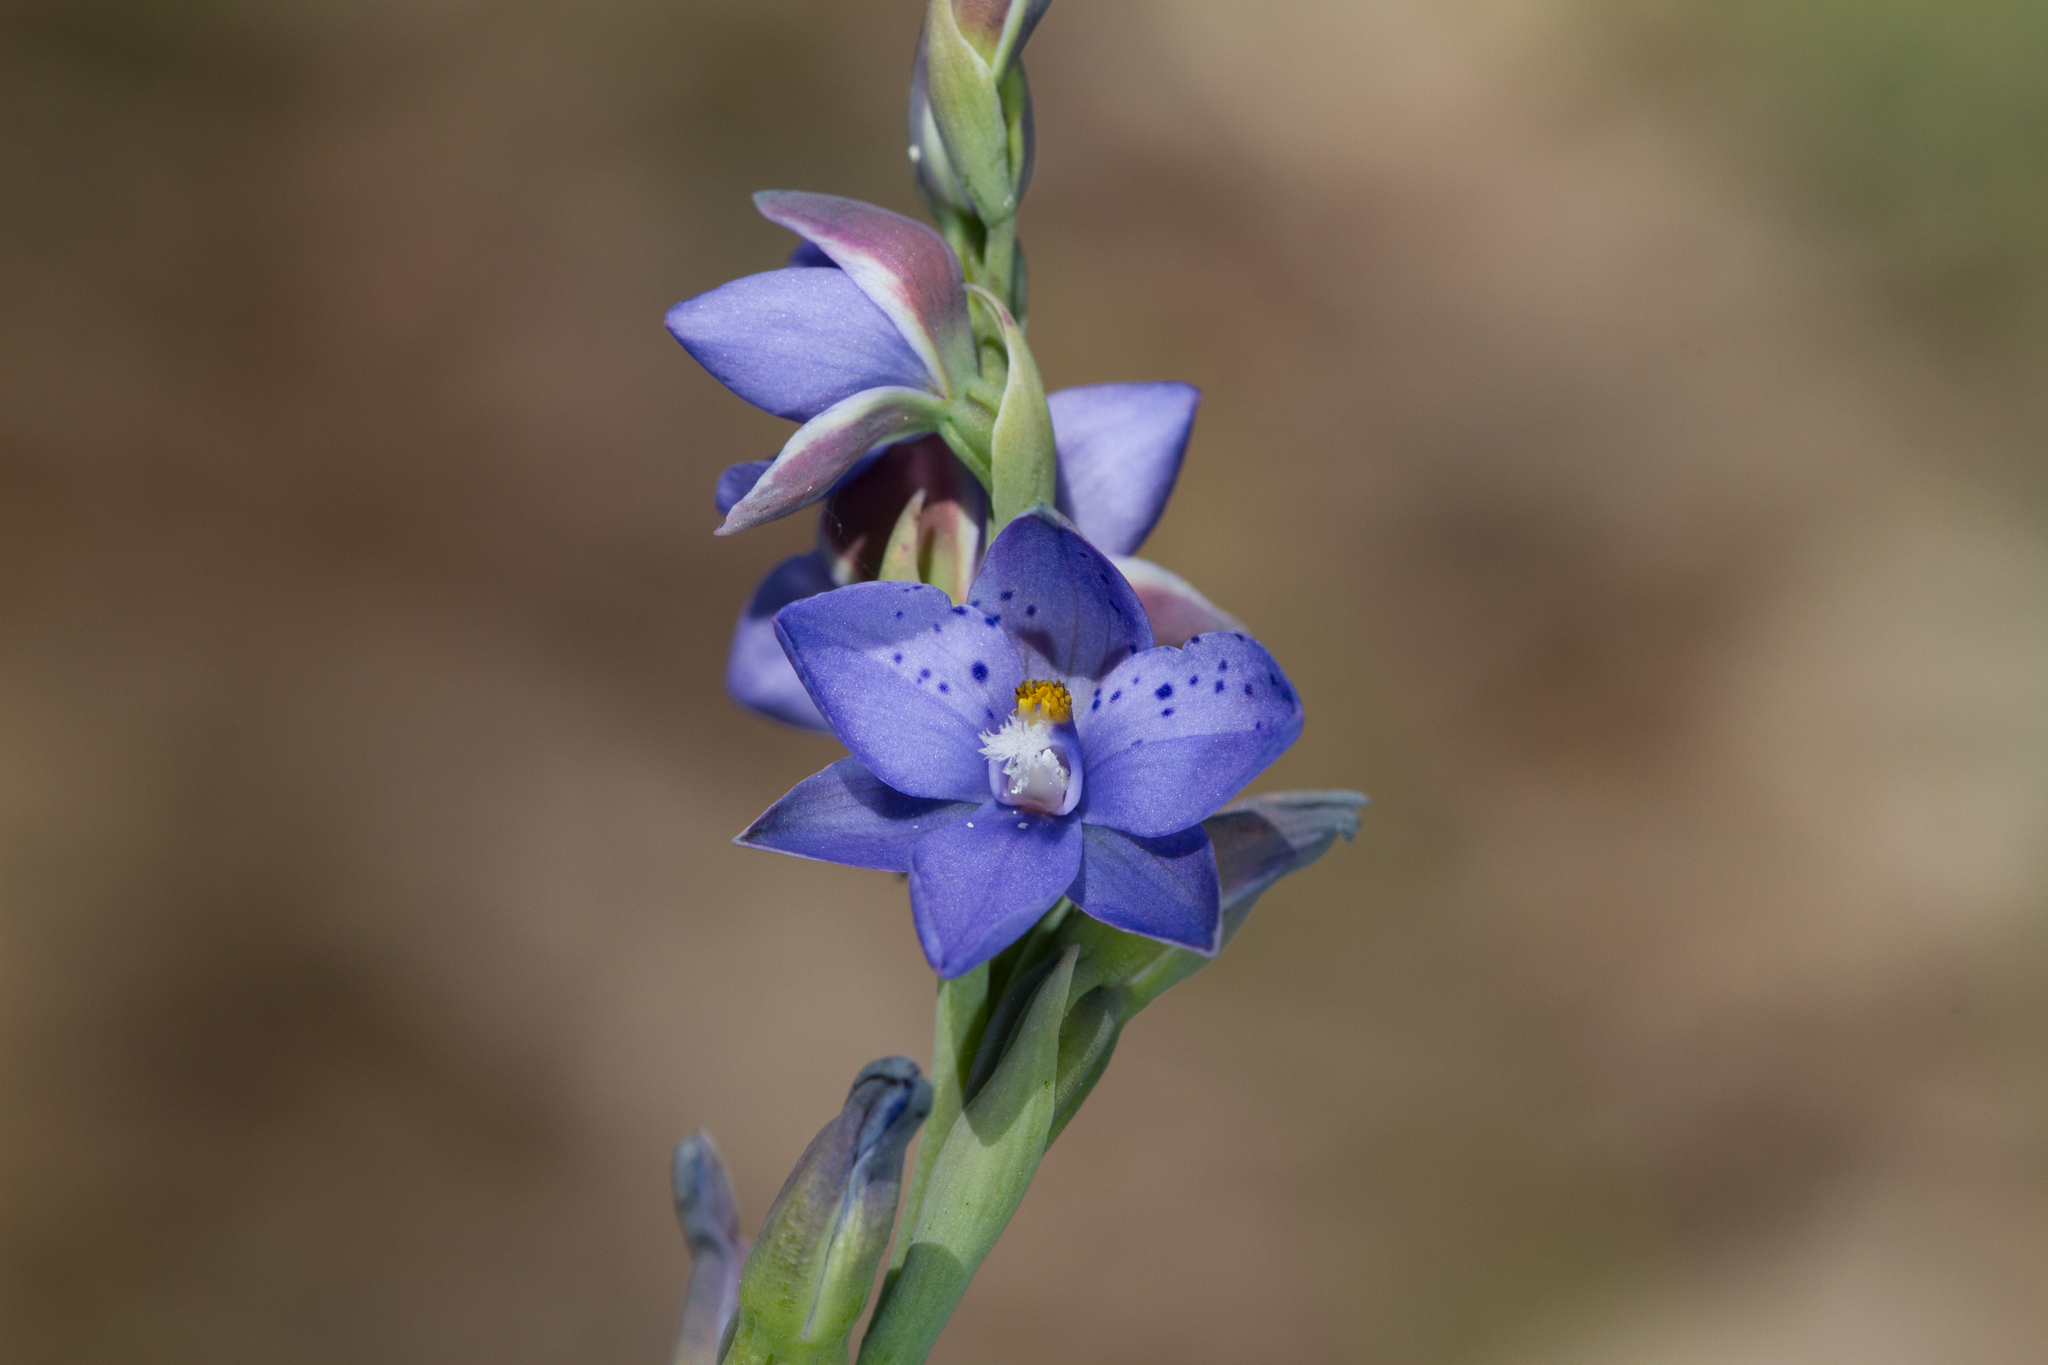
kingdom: Plantae
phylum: Tracheophyta
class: Liliopsida
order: Asparagales
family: Orchidaceae
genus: Thelymitra
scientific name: Thelymitra ixioides
